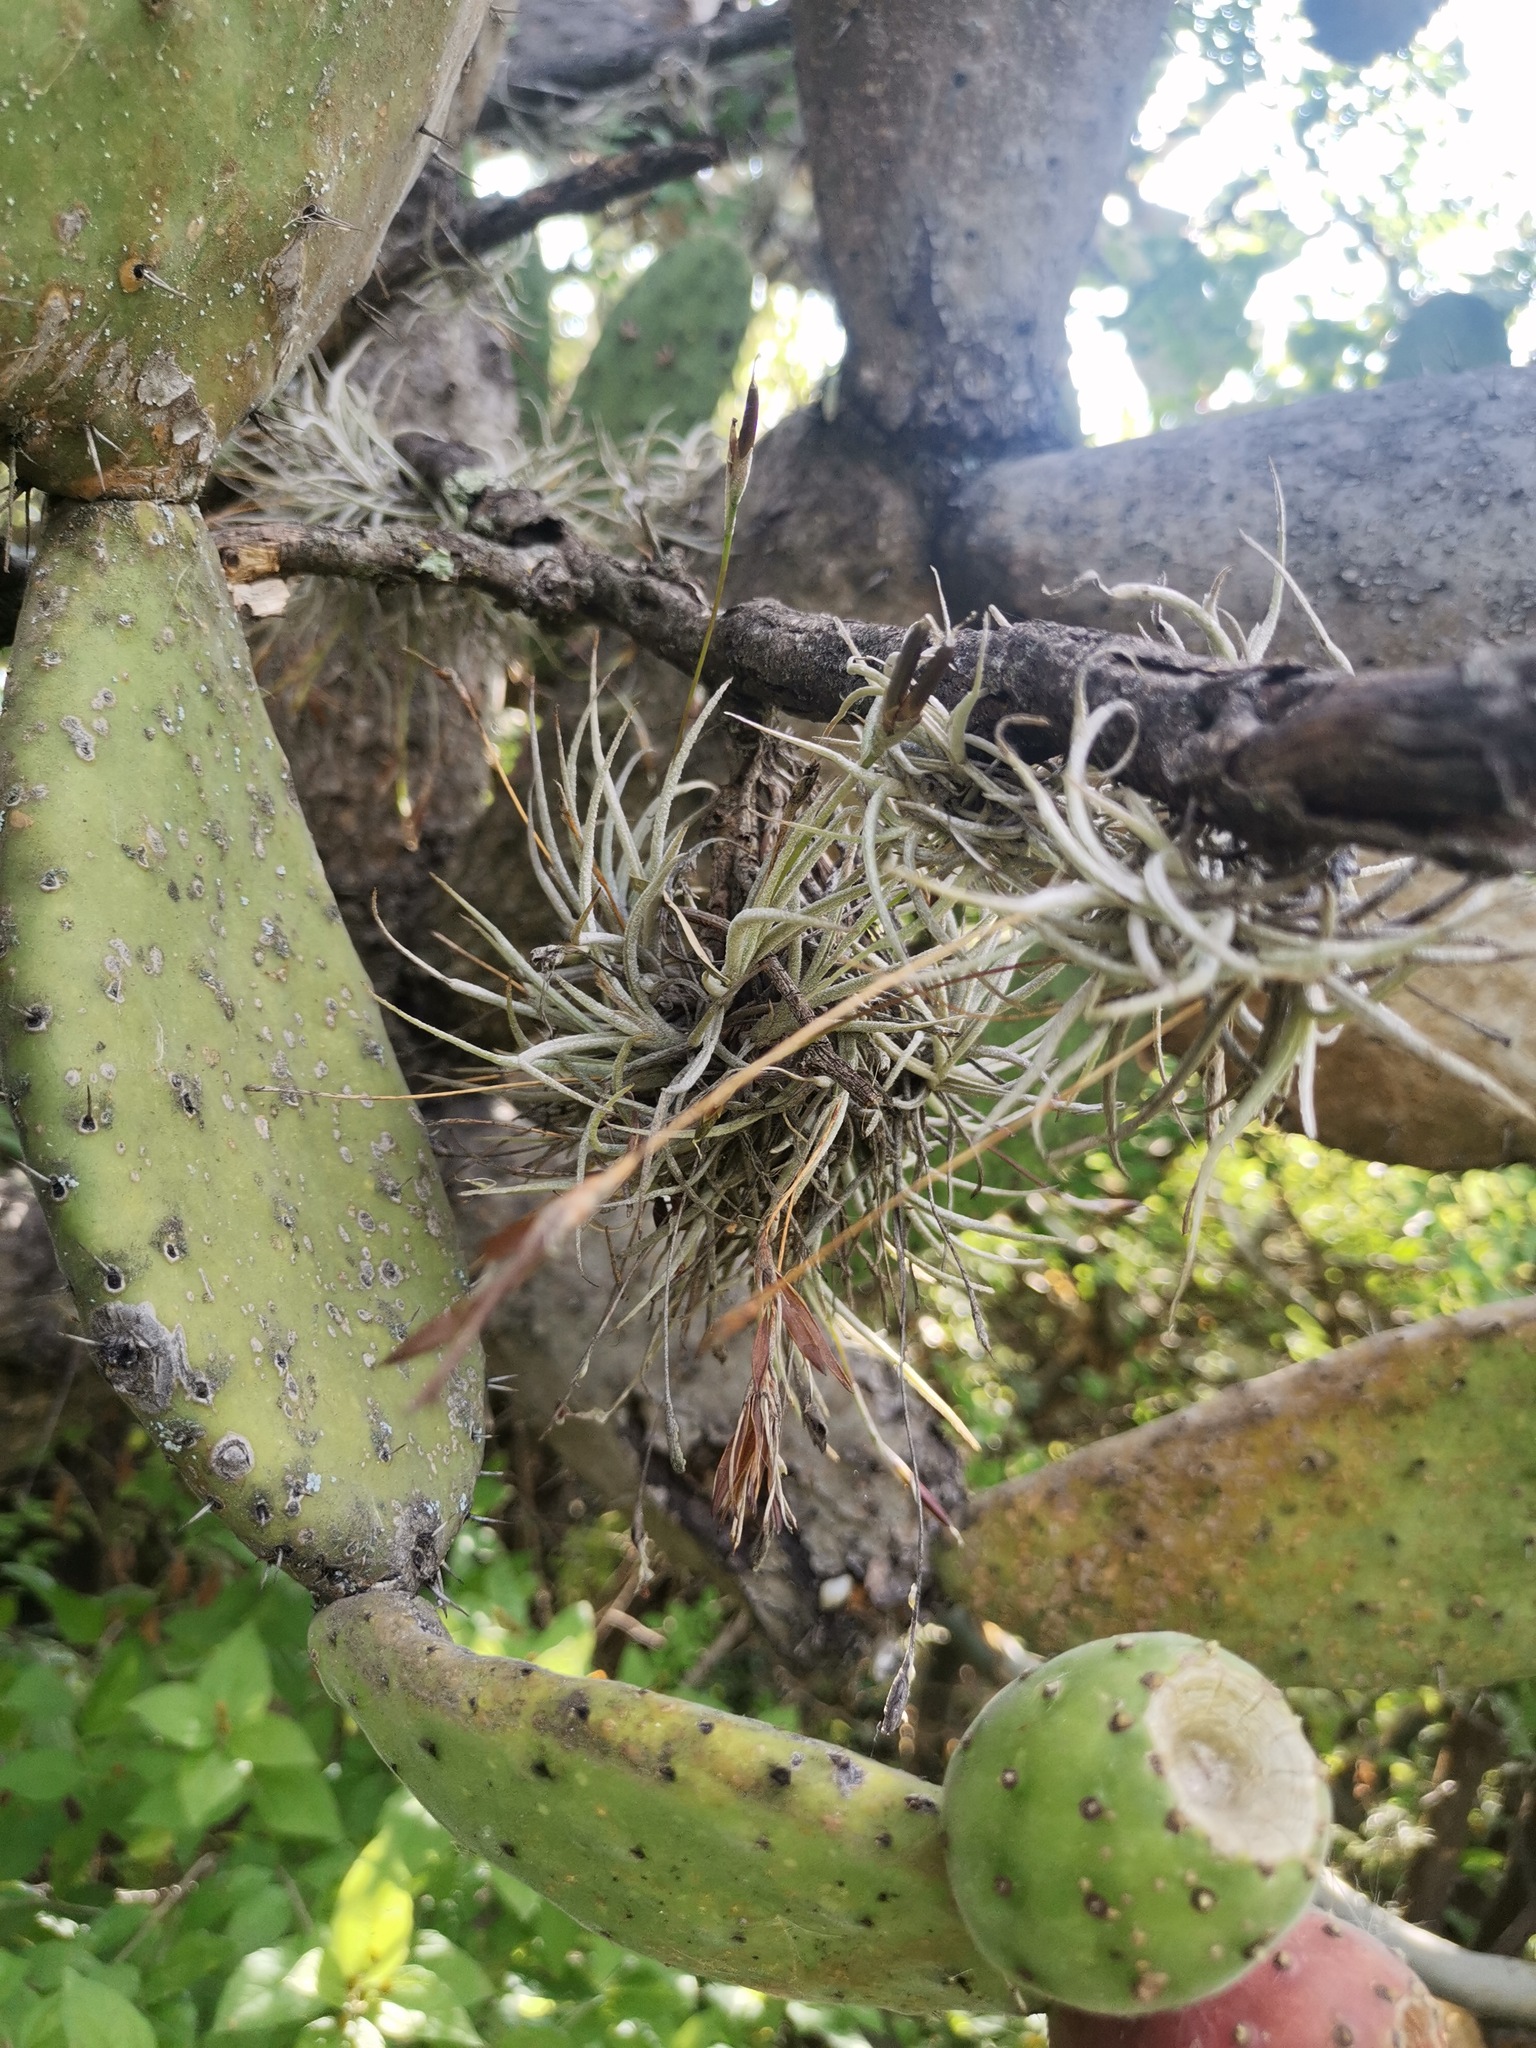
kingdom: Plantae
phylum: Tracheophyta
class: Liliopsida
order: Poales
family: Bromeliaceae
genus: Tillandsia
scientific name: Tillandsia recurvata
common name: Small ballmoss
